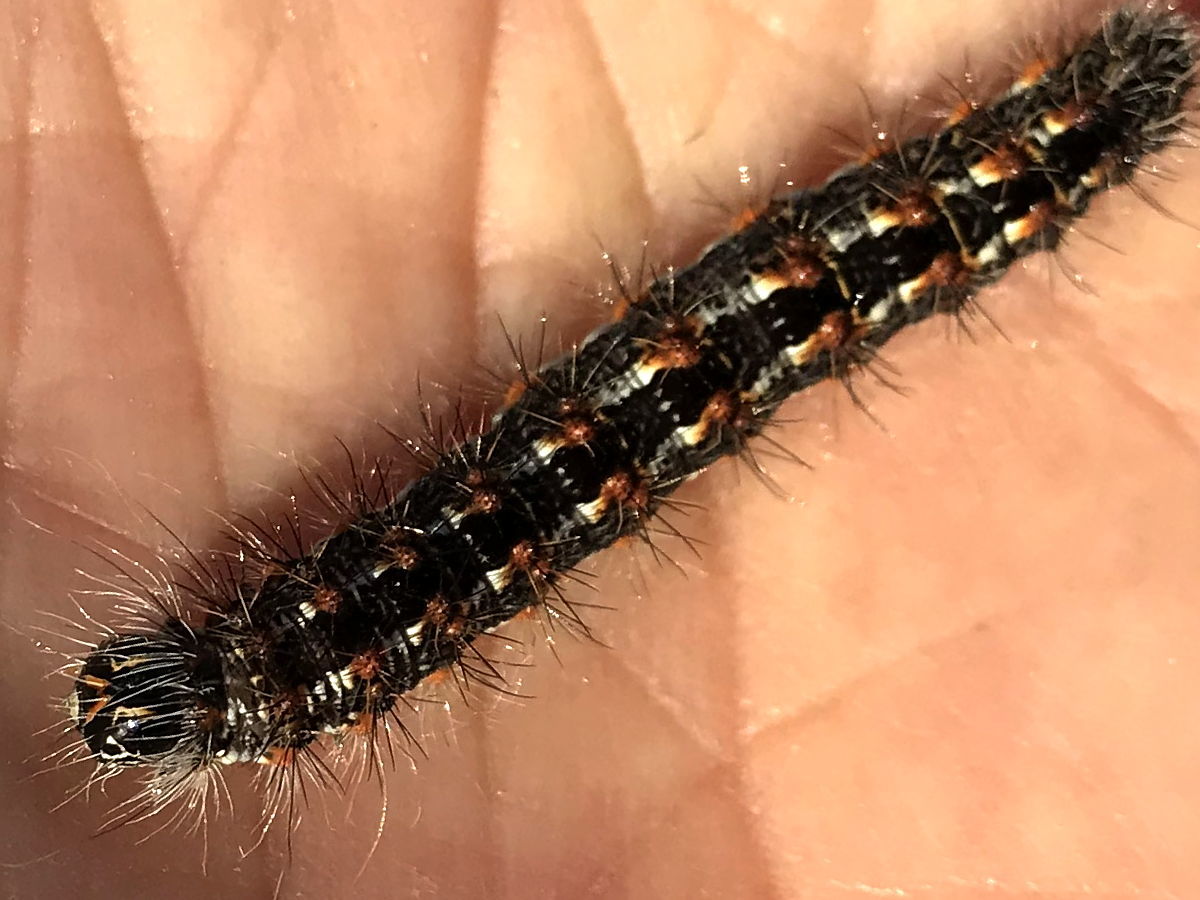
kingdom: Animalia
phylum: Arthropoda
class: Insecta
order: Lepidoptera
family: Noctuidae
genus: Acronicta
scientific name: Acronicta insularis
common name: Henry's marsh moth
